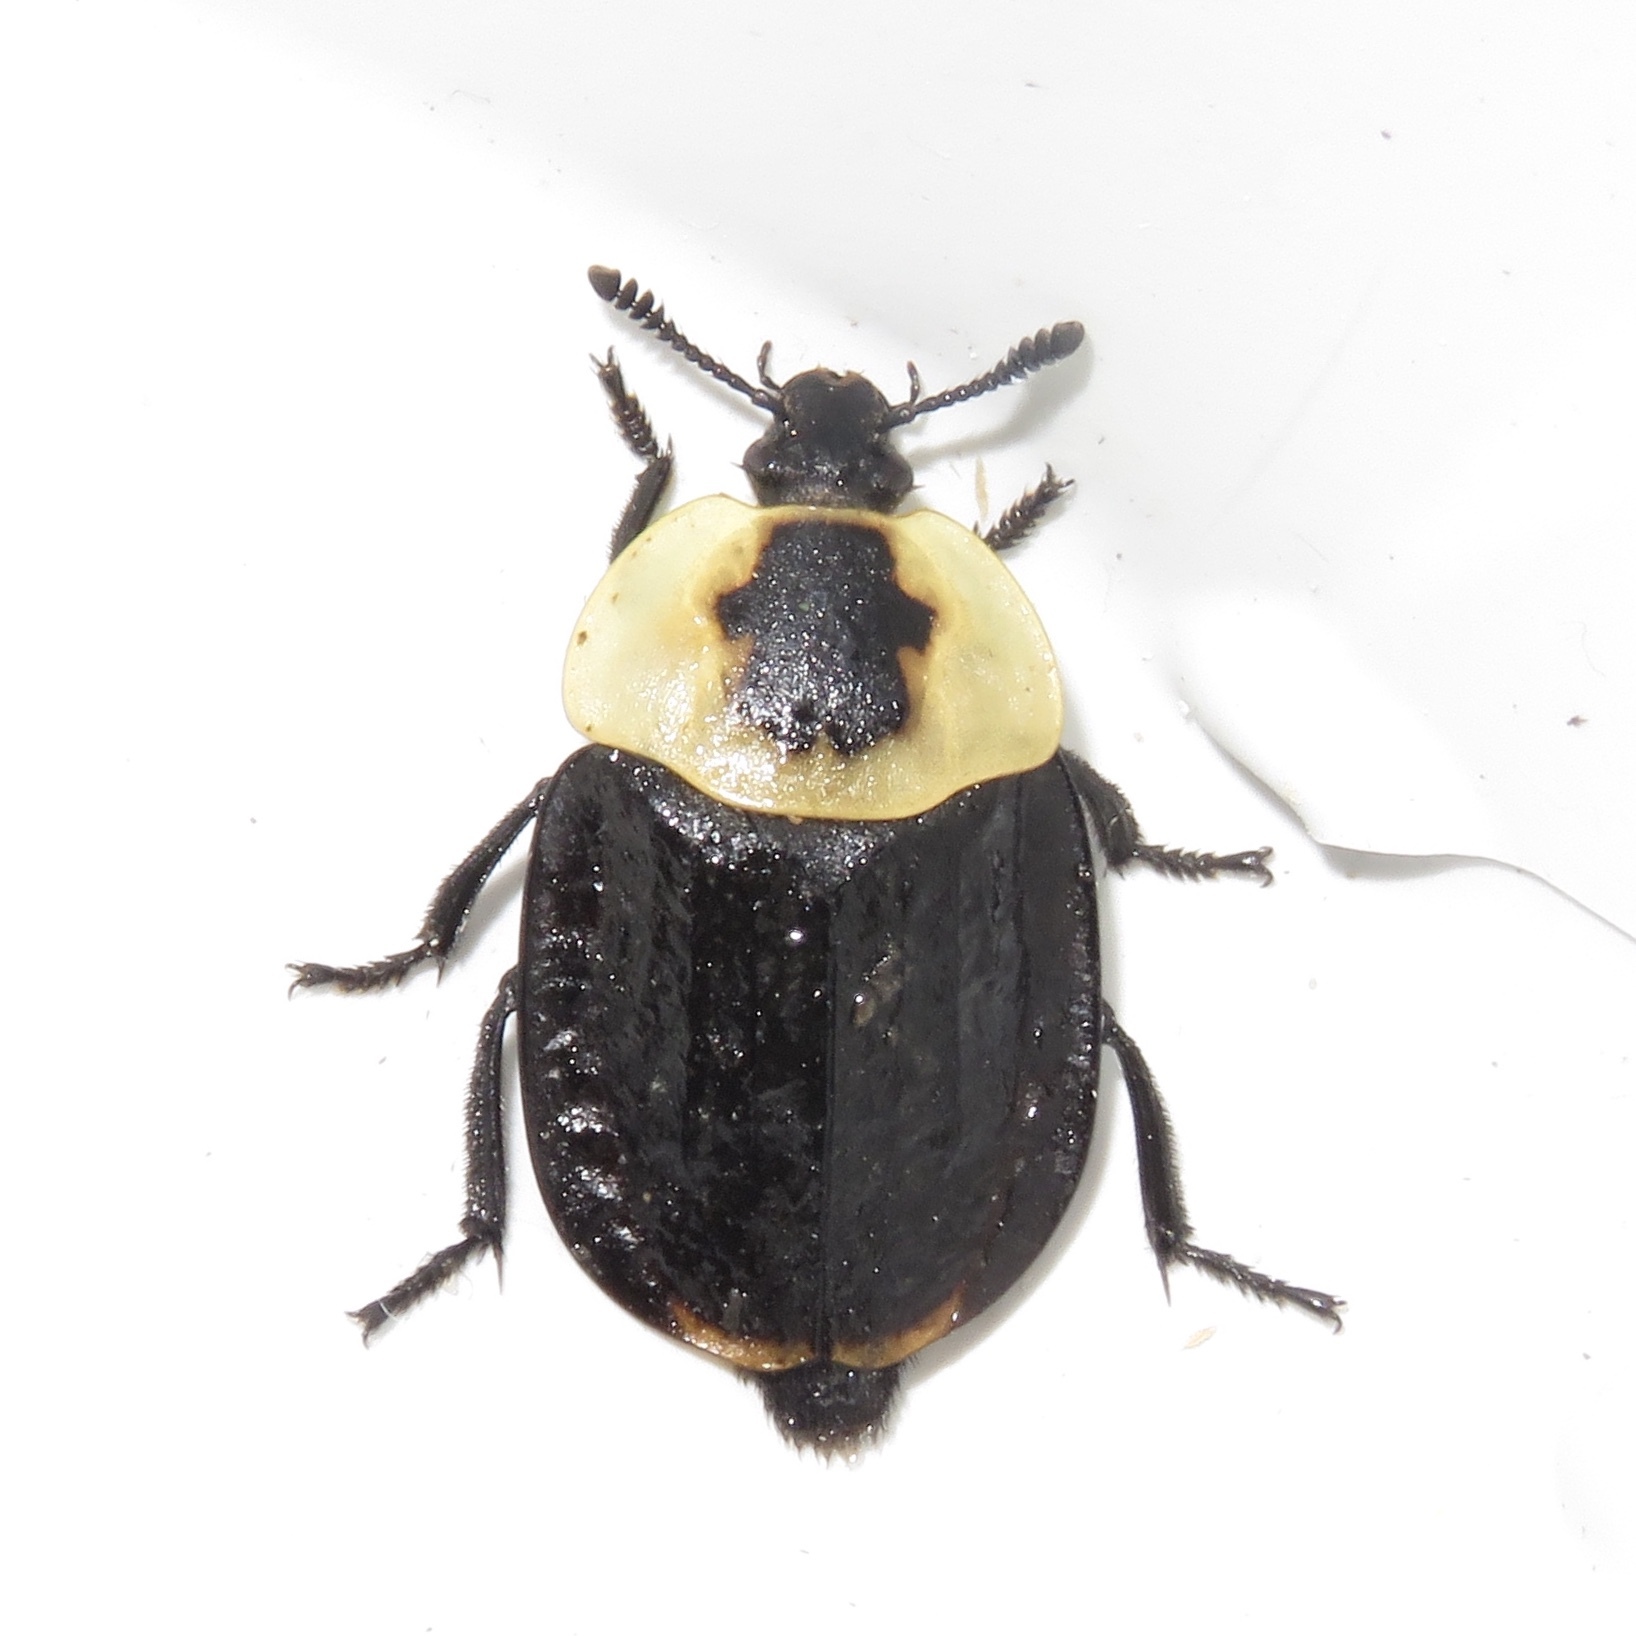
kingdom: Animalia
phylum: Arthropoda
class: Insecta
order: Coleoptera
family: Staphylinidae
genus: Necrophila
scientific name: Necrophila americana
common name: American carrion beetle
